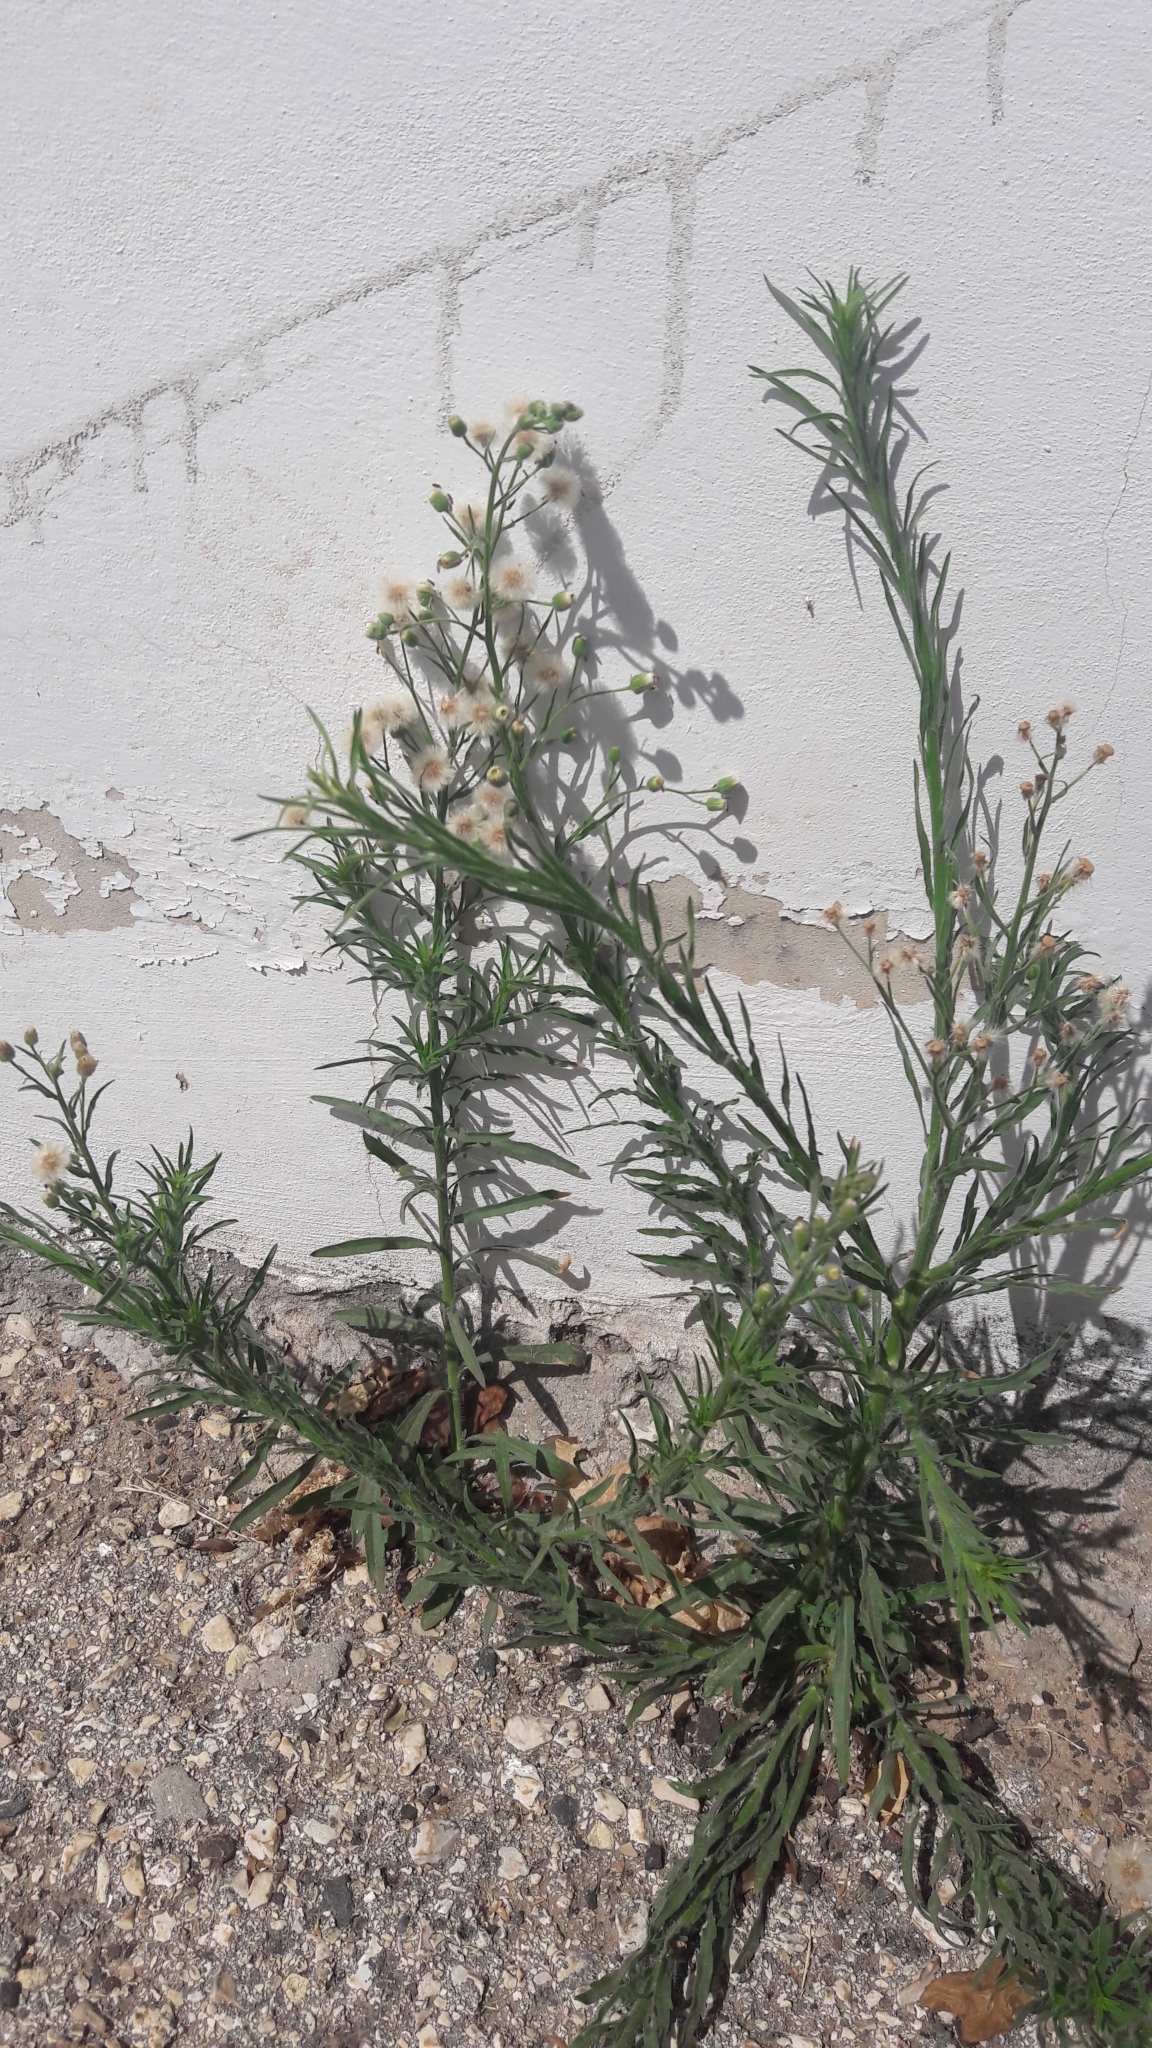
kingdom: Plantae
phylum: Tracheophyta
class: Magnoliopsida
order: Asterales
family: Asteraceae
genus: Erigeron
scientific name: Erigeron bonariensis
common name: Argentine fleabane
